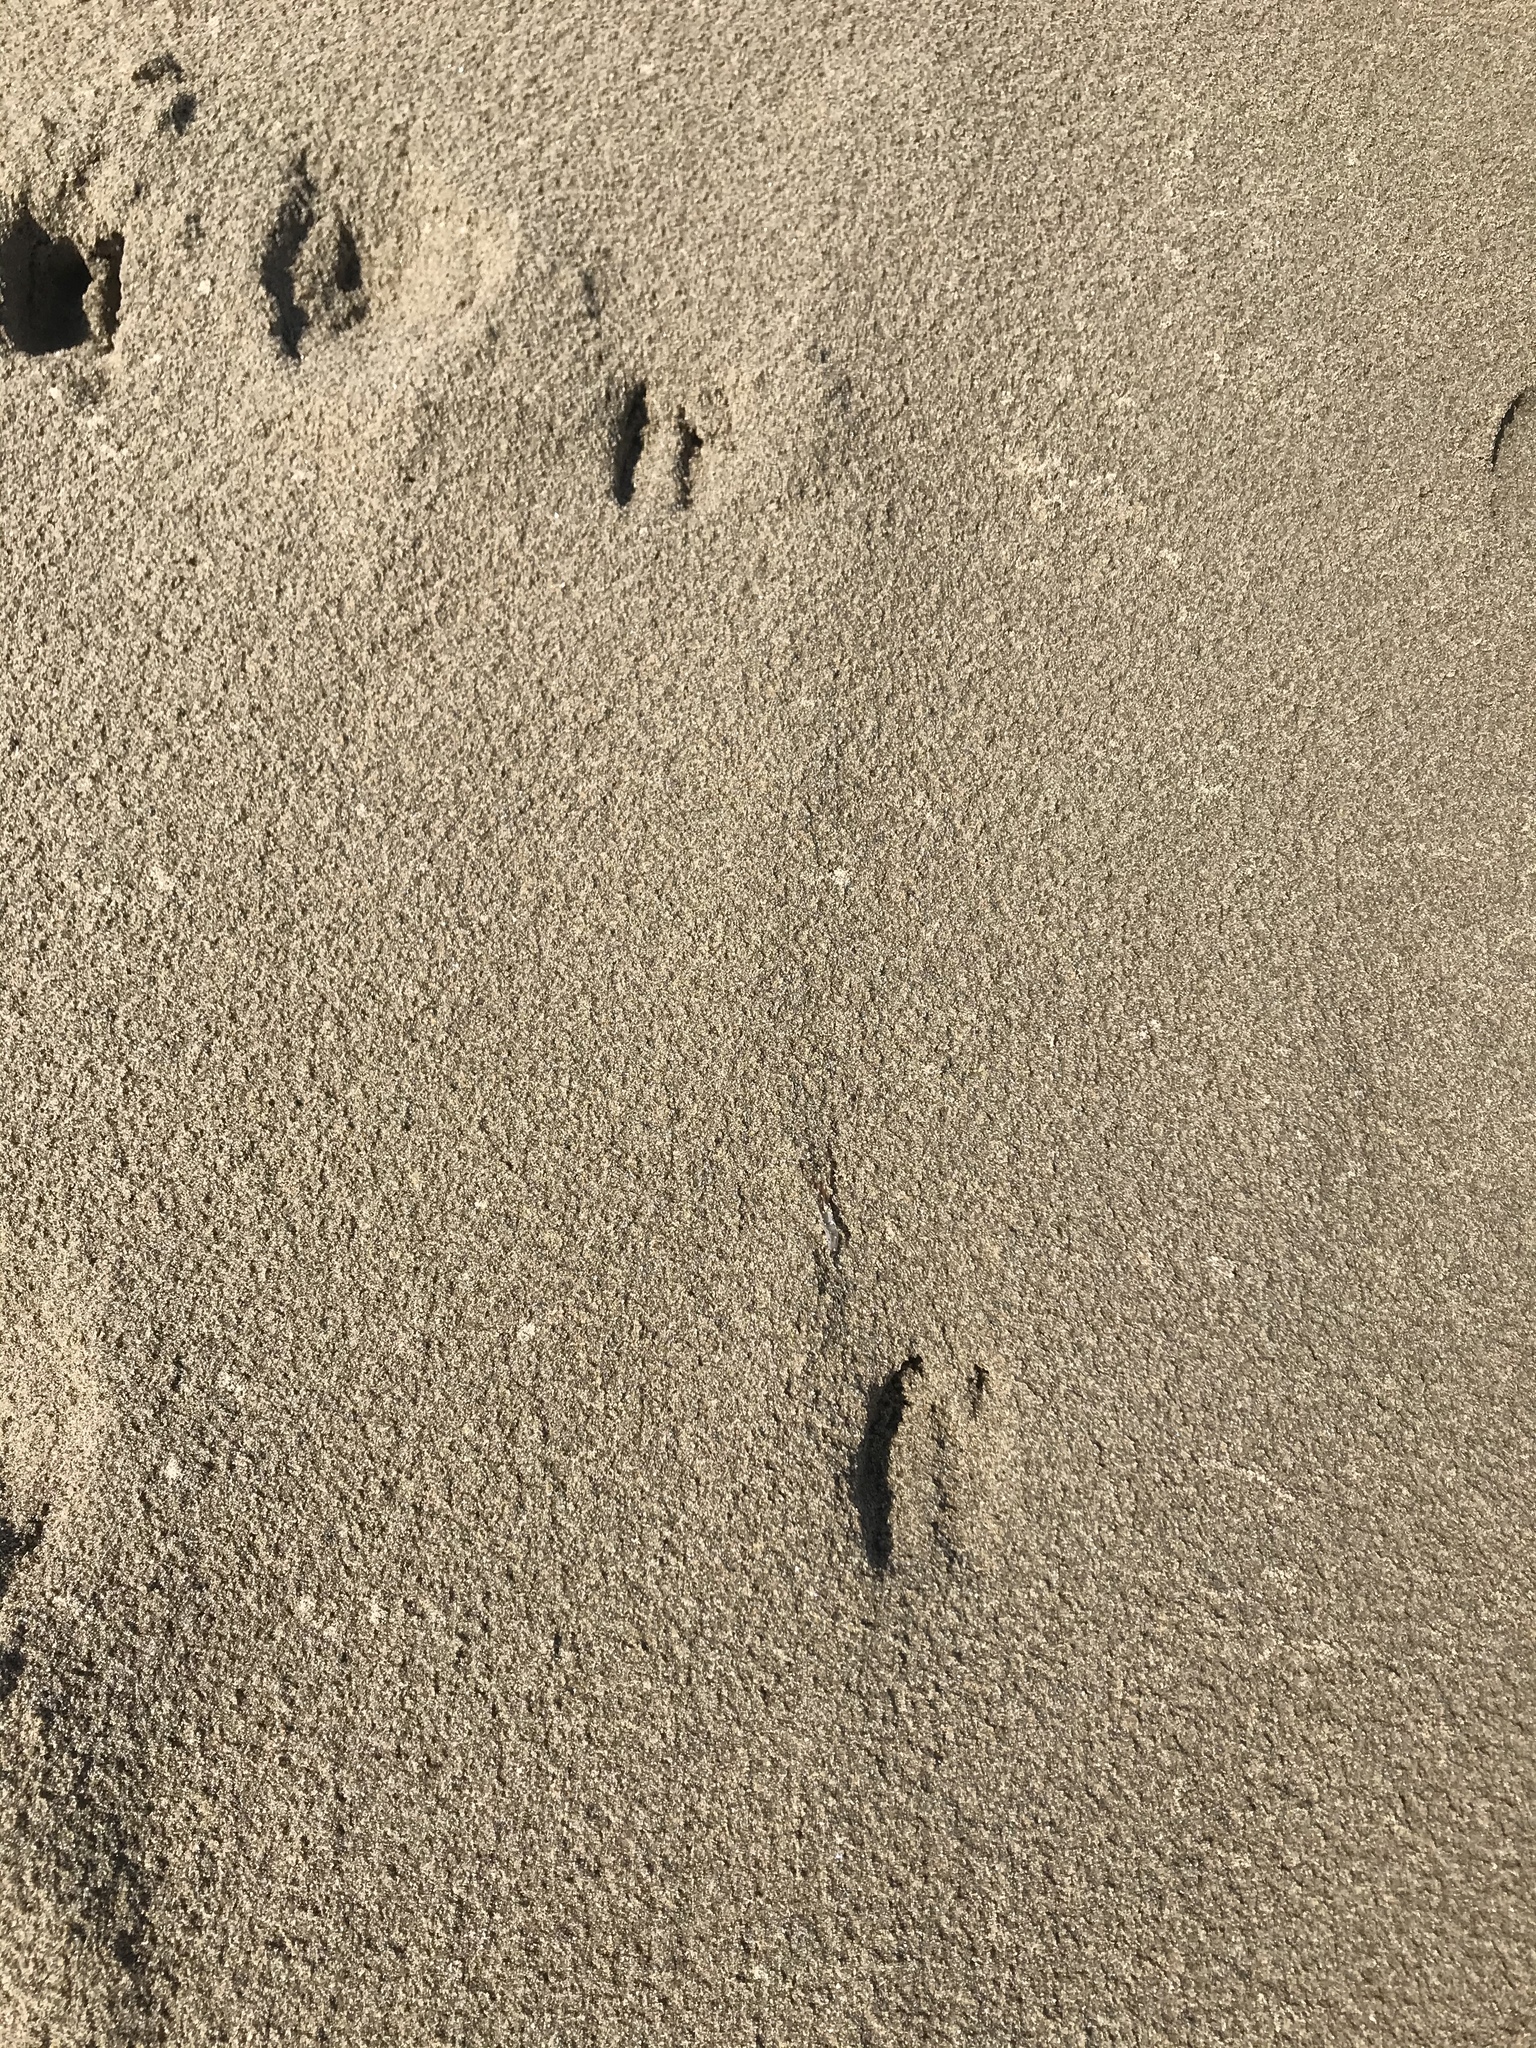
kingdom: Animalia
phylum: Chordata
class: Mammalia
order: Artiodactyla
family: Cervidae
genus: Odocoileus
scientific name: Odocoileus hemionus
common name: Mule deer
